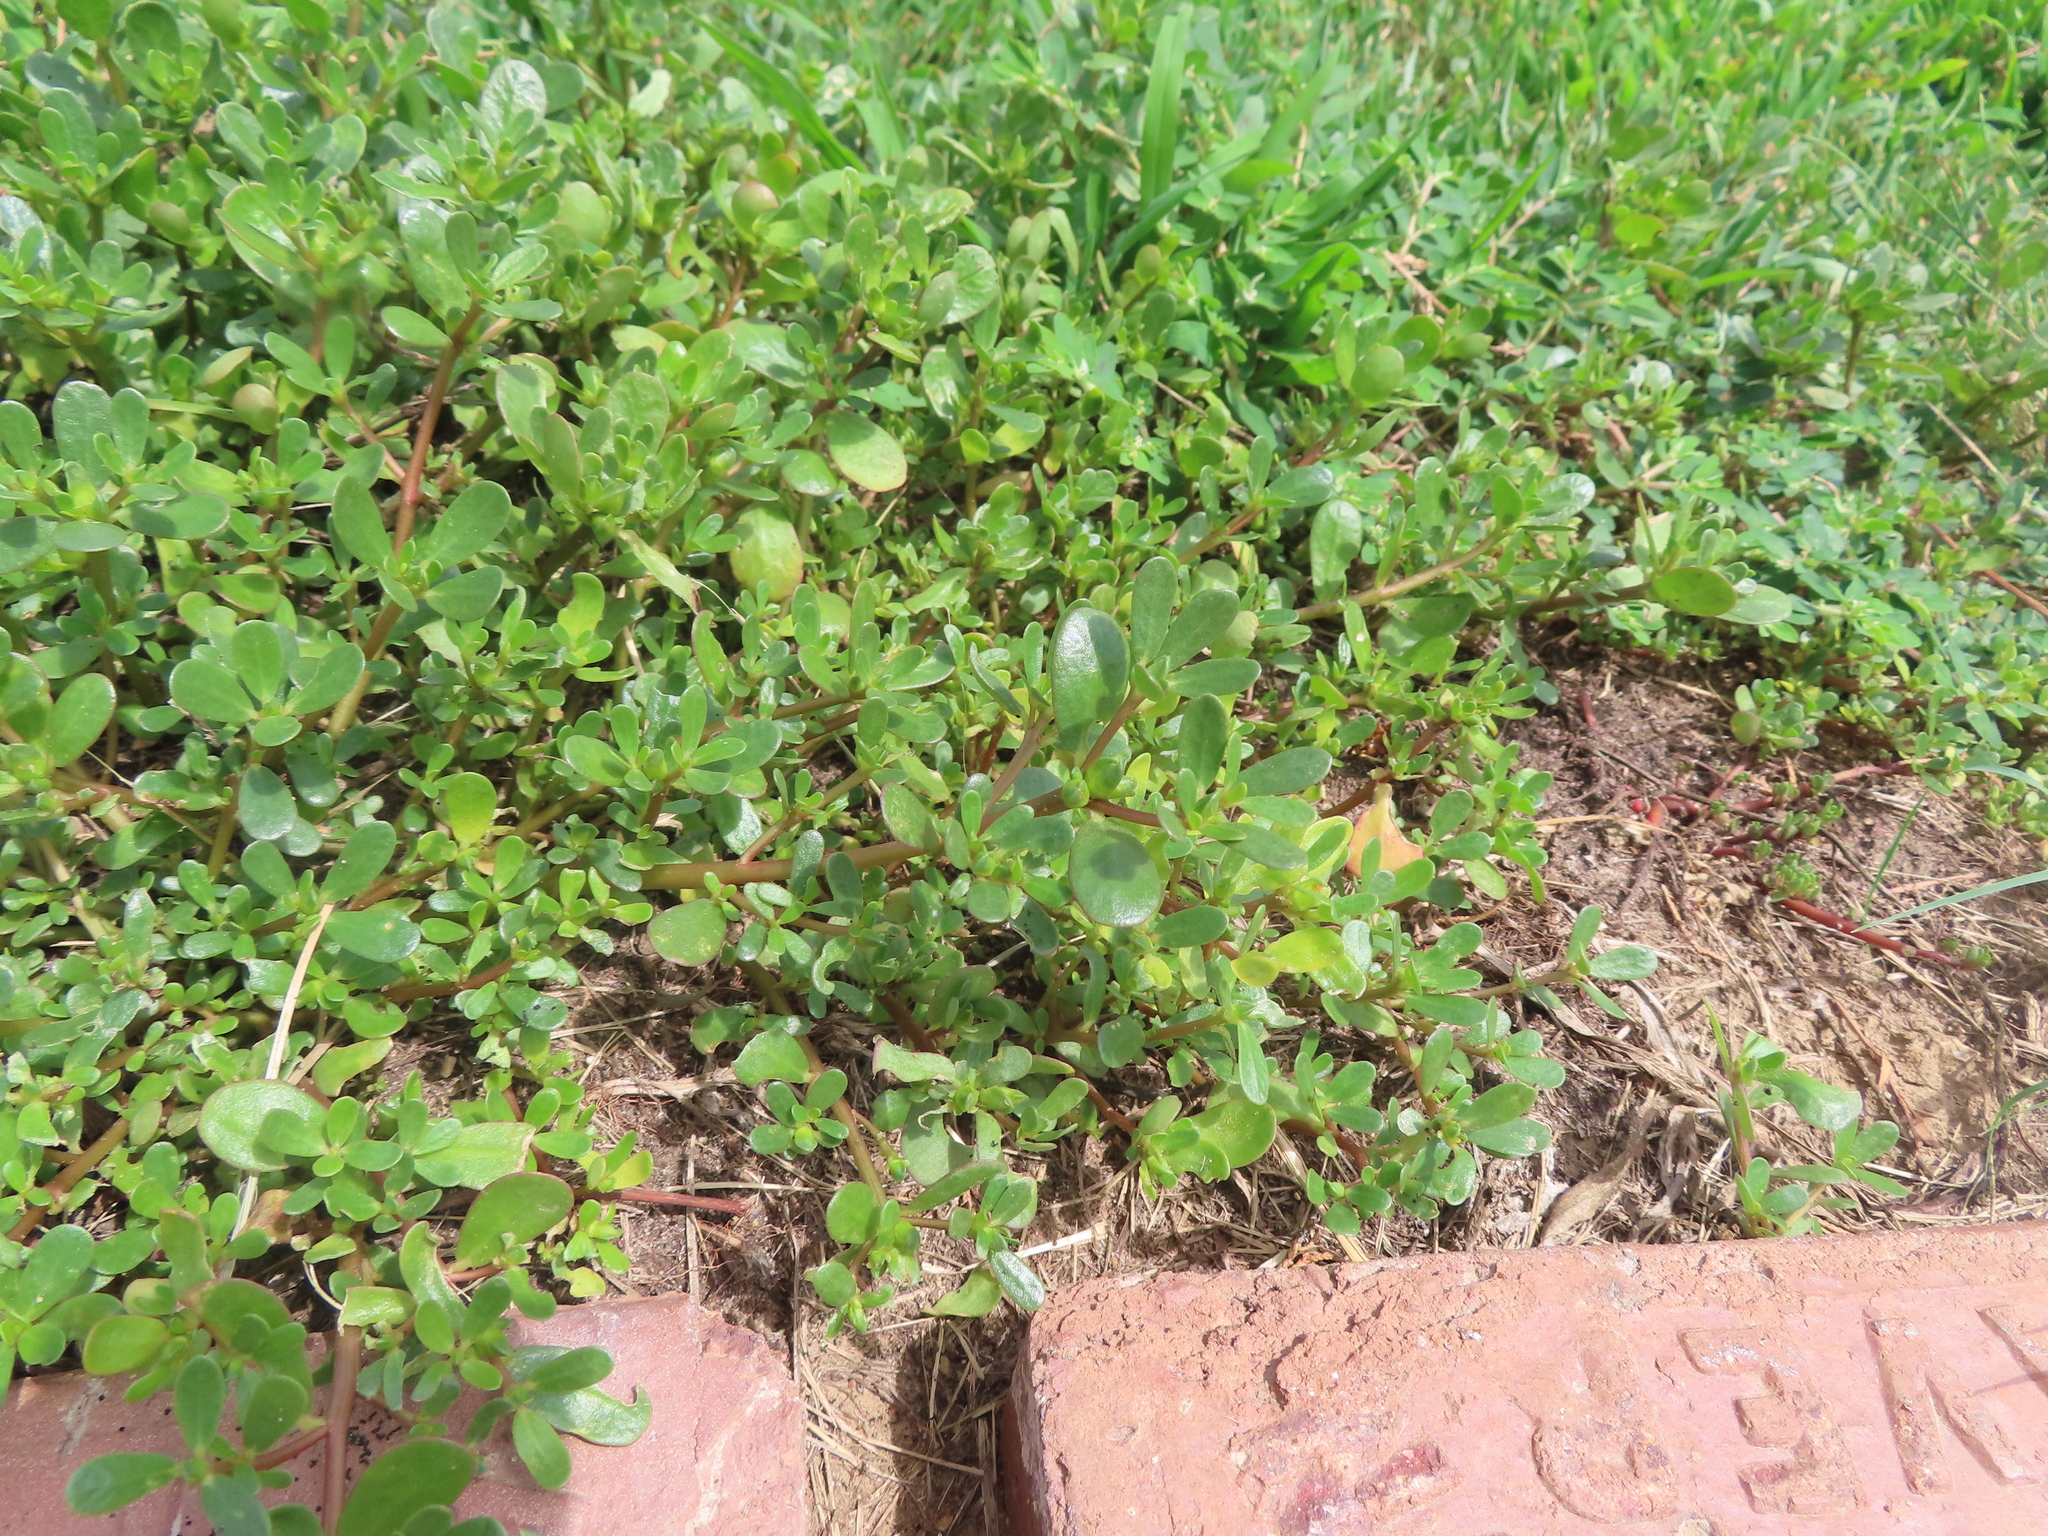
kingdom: Plantae
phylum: Tracheophyta
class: Magnoliopsida
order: Caryophyllales
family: Portulacaceae
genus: Portulaca
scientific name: Portulaca oleracea
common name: Common purslane
